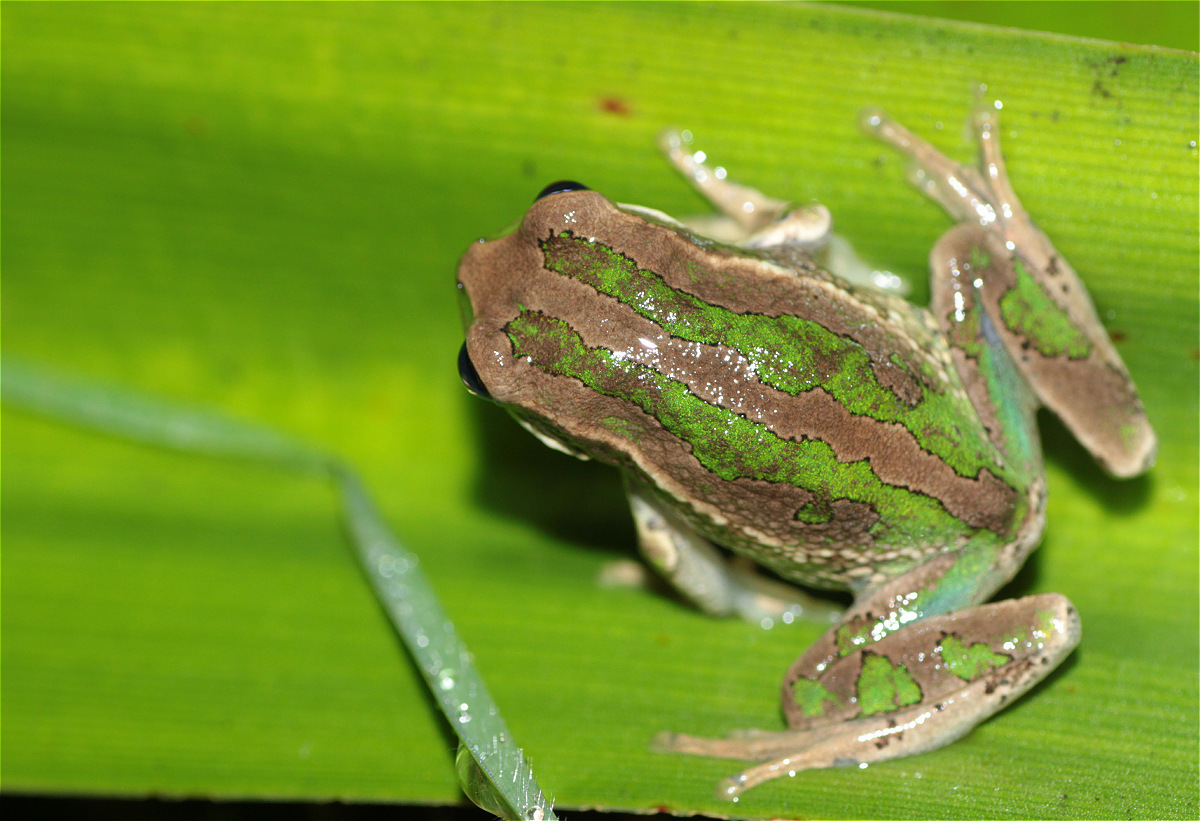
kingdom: Animalia
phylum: Chordata
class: Amphibia
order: Anura
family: Hemiphractidae
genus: Gastrotheca
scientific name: Gastrotheca cuencana
